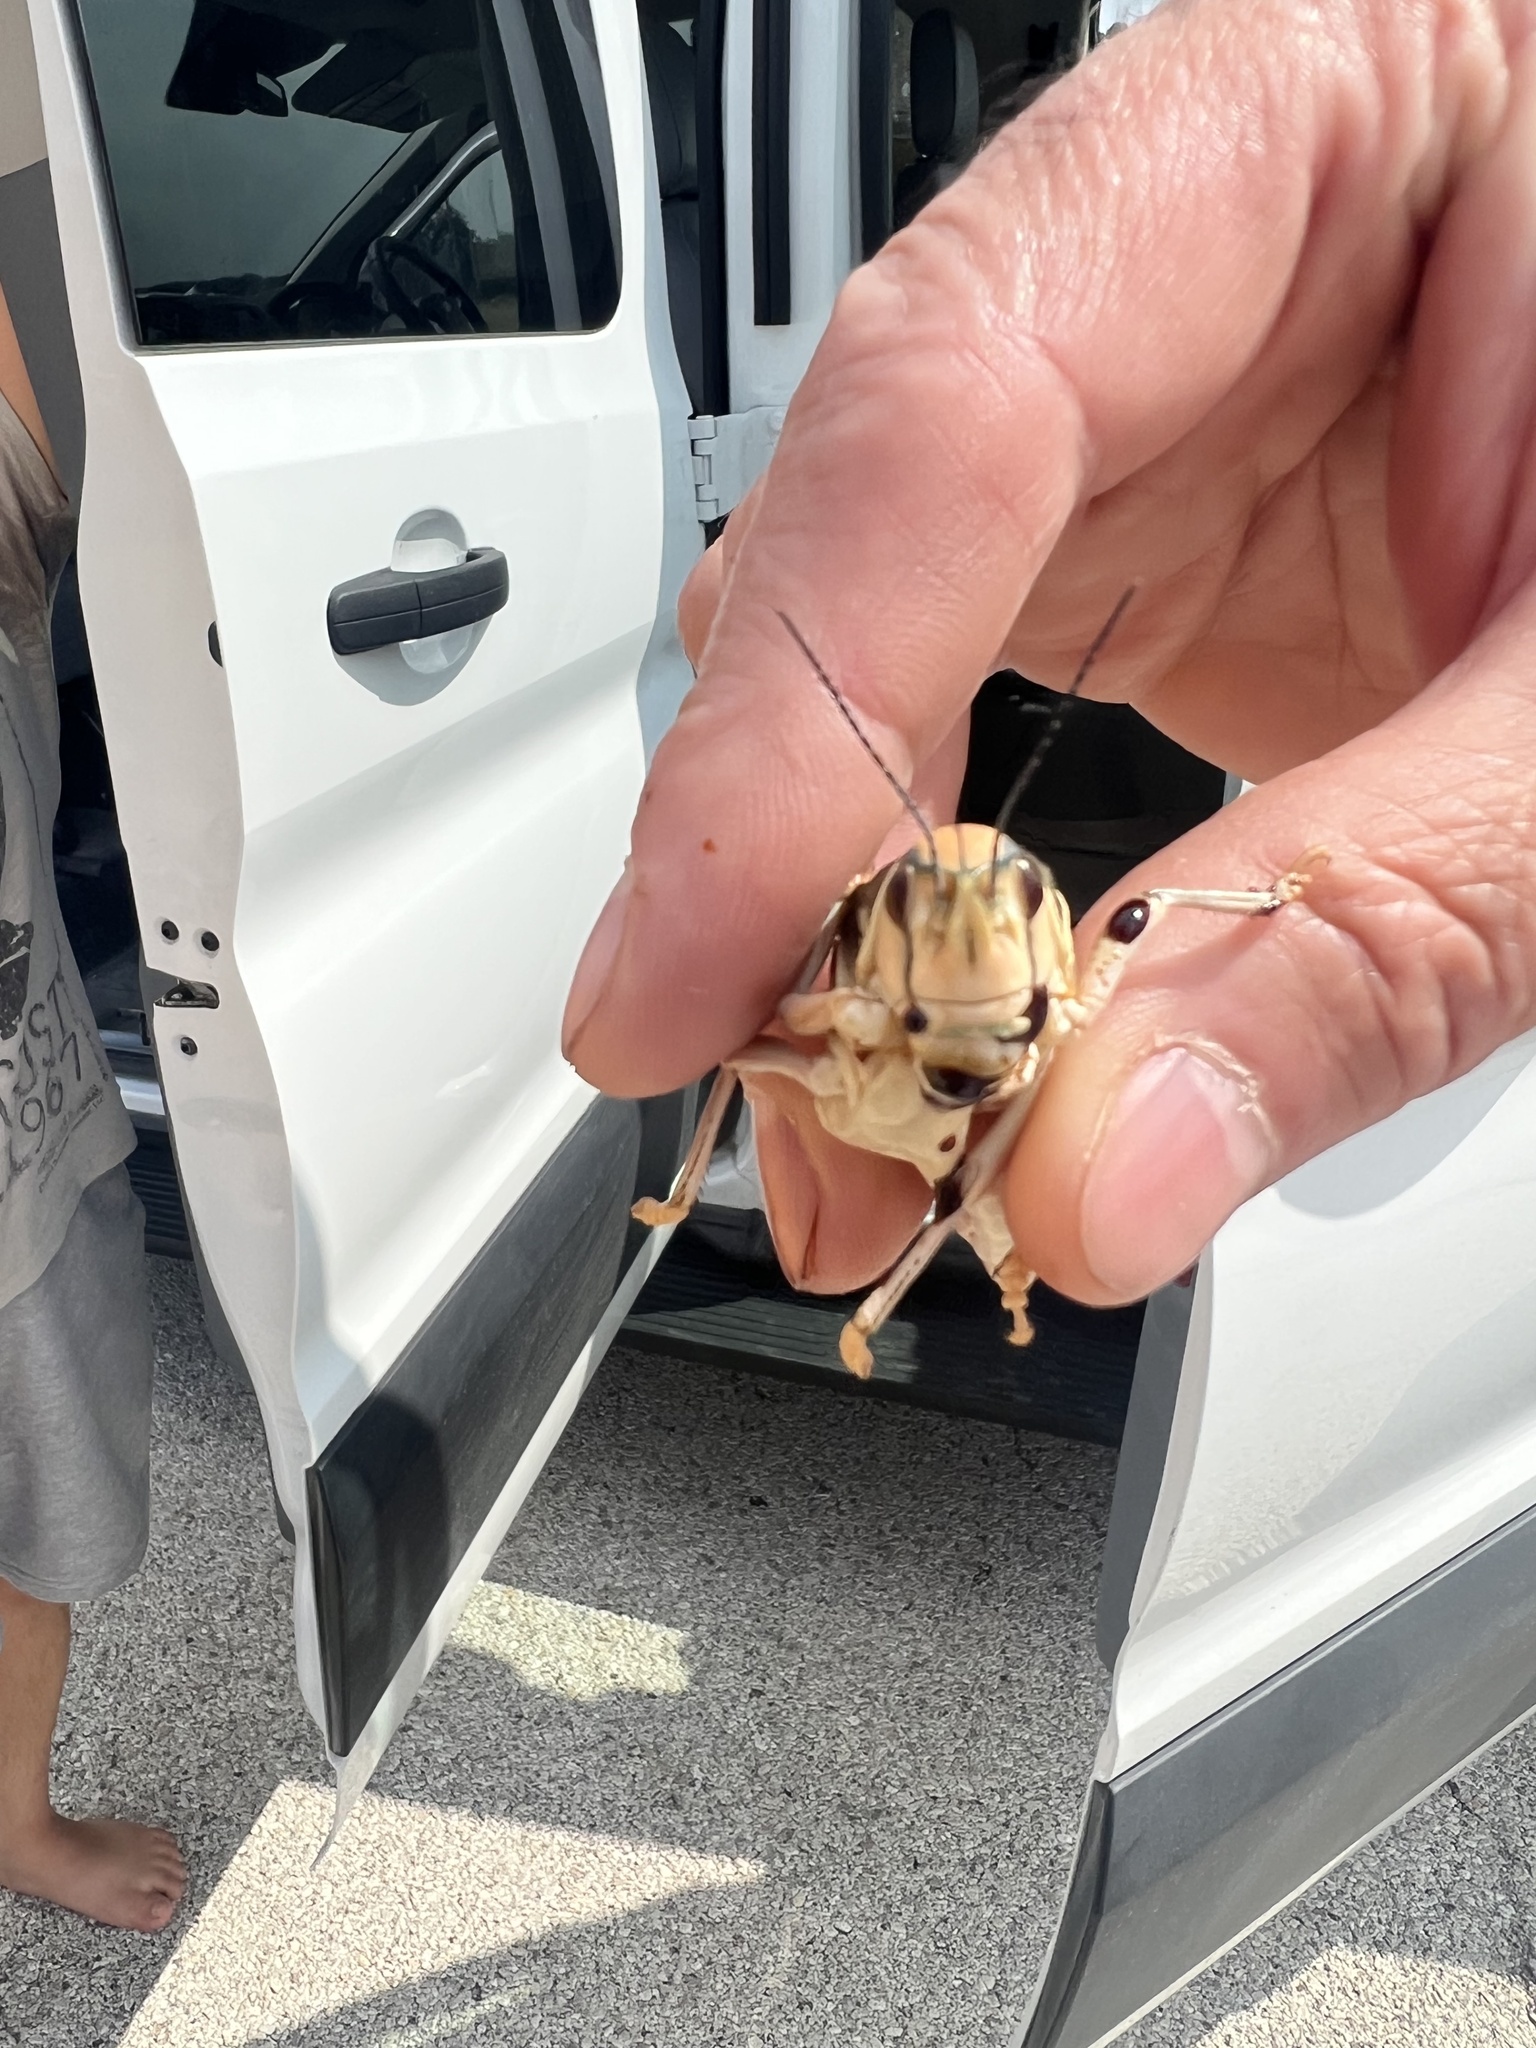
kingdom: Animalia
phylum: Arthropoda
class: Insecta
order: Orthoptera
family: Romaleidae
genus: Brachystola
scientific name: Brachystola magna
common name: Plains lubber grasshopper
